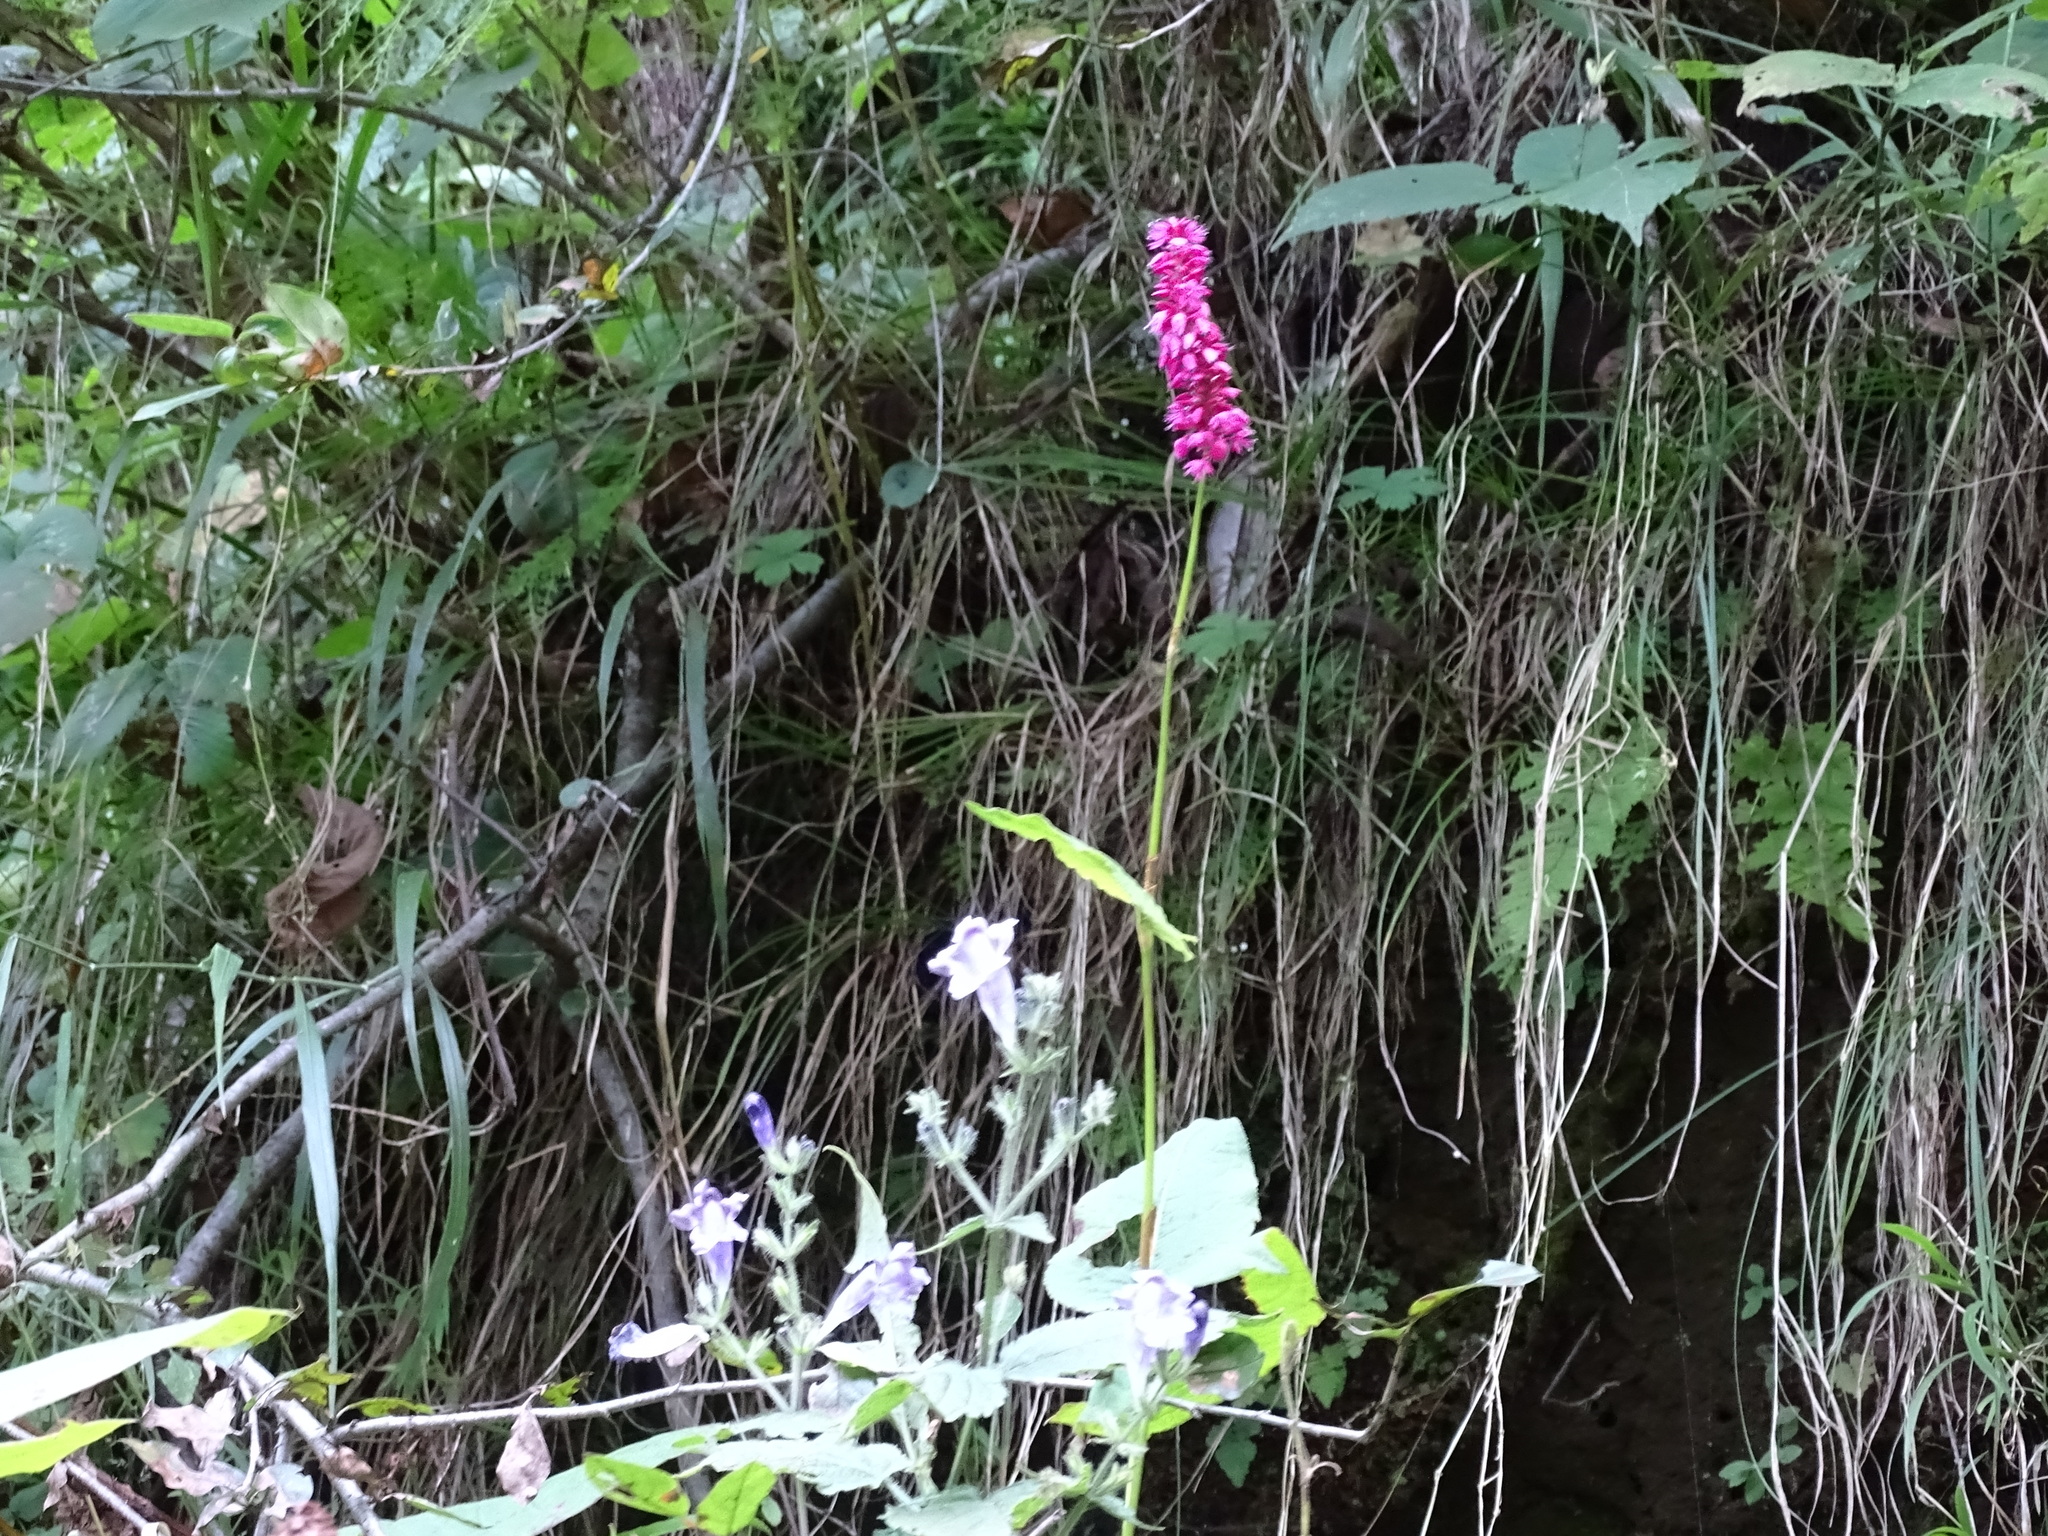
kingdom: Plantae
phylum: Tracheophyta
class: Magnoliopsida
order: Caryophyllales
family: Polygonaceae
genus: Bistorta
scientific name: Bistorta amplexicaulis
